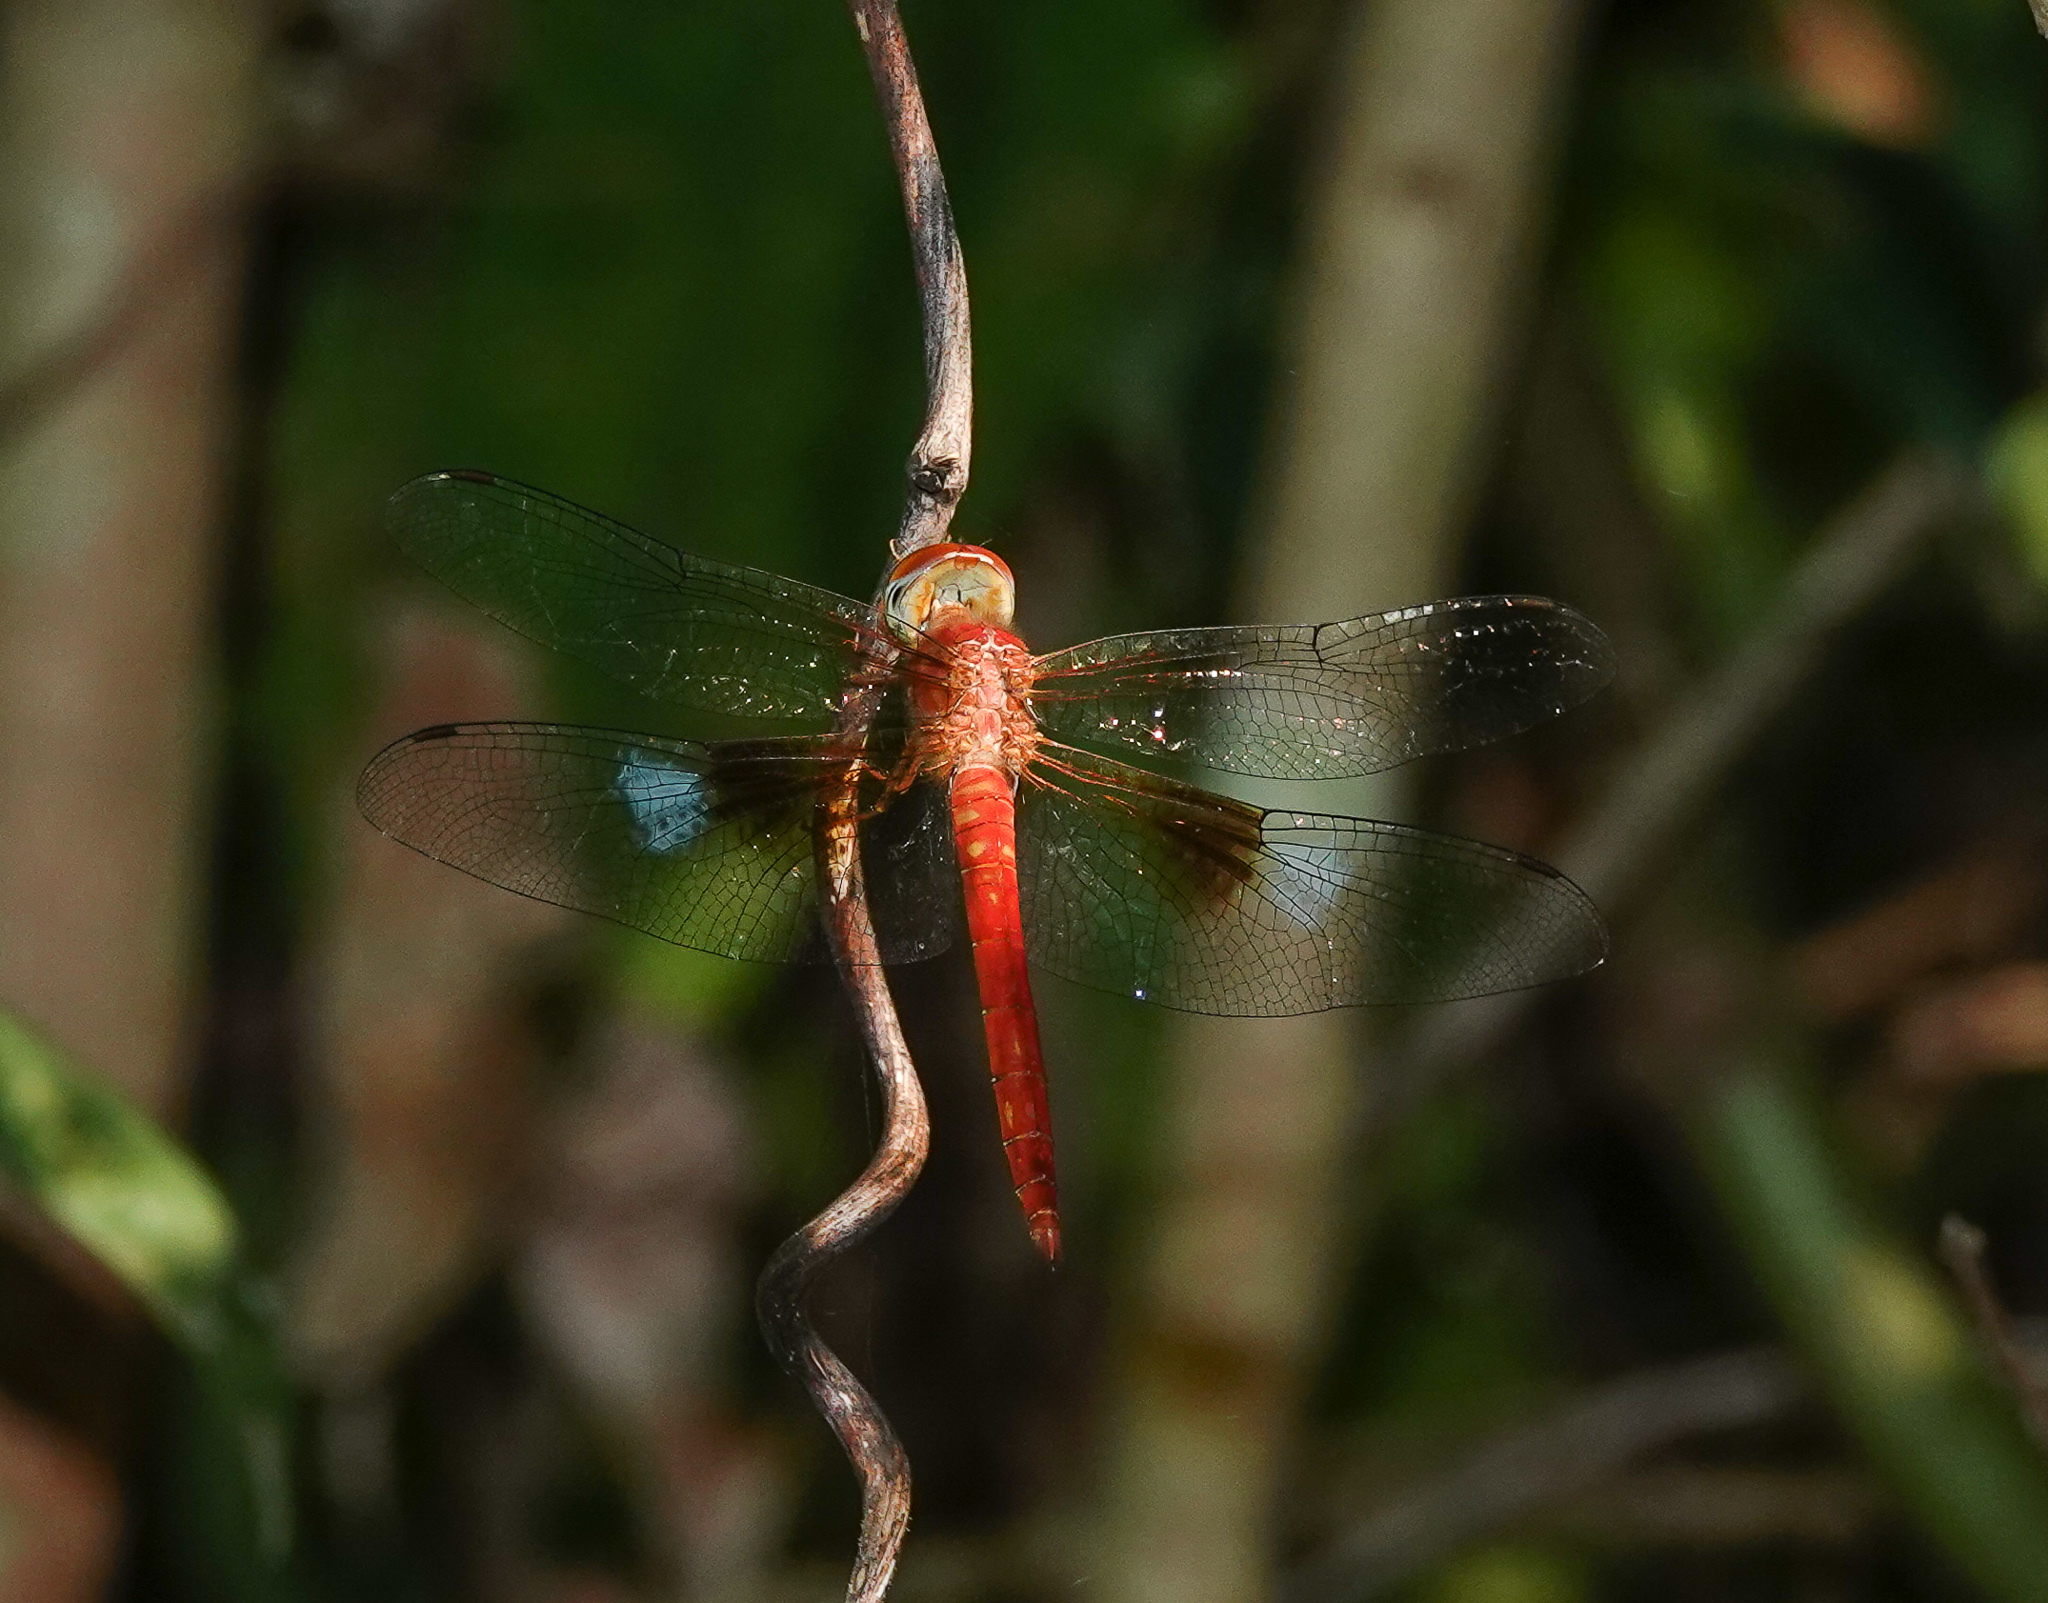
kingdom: Animalia
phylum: Arthropoda
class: Insecta
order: Odonata
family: Libellulidae
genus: Tholymis
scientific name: Tholymis tillarga
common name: Coral-tailed cloud wing
